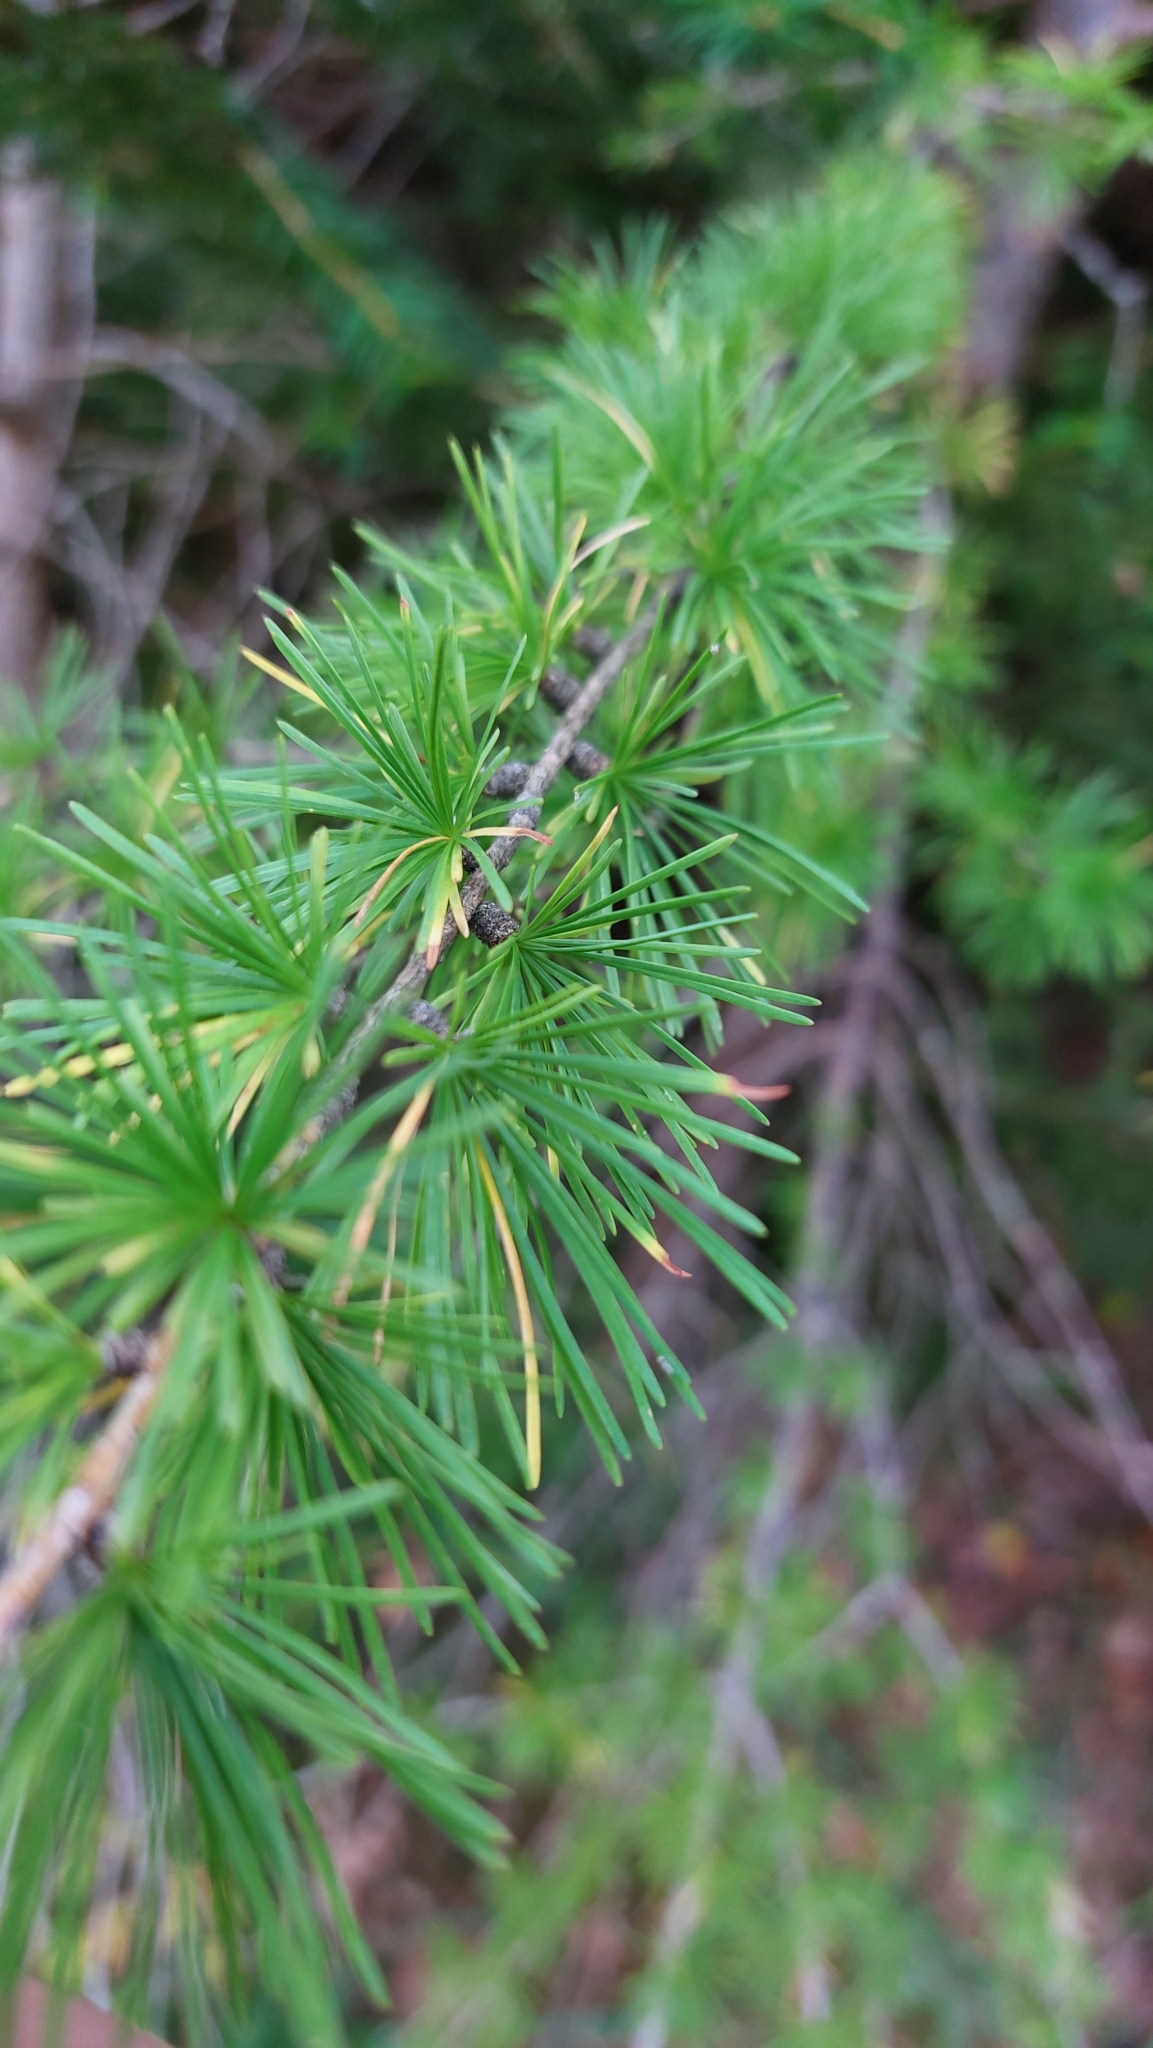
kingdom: Plantae
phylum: Tracheophyta
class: Pinopsida
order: Pinales
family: Pinaceae
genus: Larix
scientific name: Larix decidua
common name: European larch
